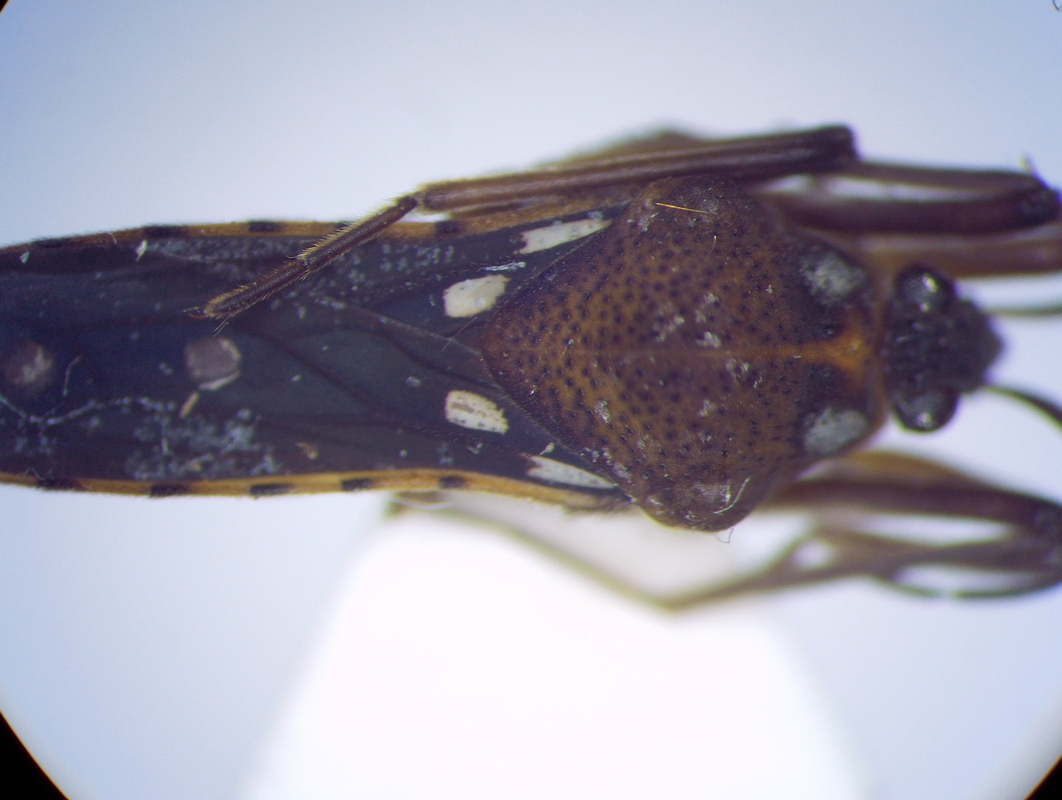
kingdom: Animalia
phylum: Arthropoda
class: Insecta
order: Hemiptera
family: Veliidae
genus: Velia
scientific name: Velia
